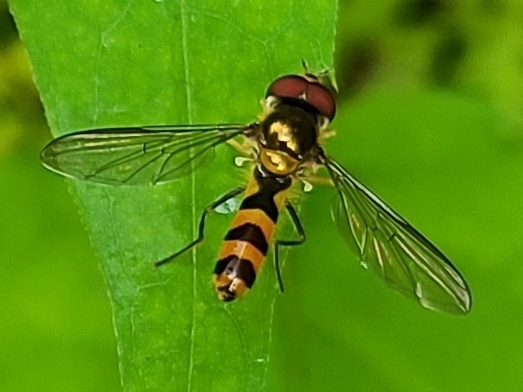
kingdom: Animalia
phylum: Arthropoda
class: Insecta
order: Diptera
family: Syrphidae
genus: Meliscaeva
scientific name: Meliscaeva cinctella
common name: American thintail fly
